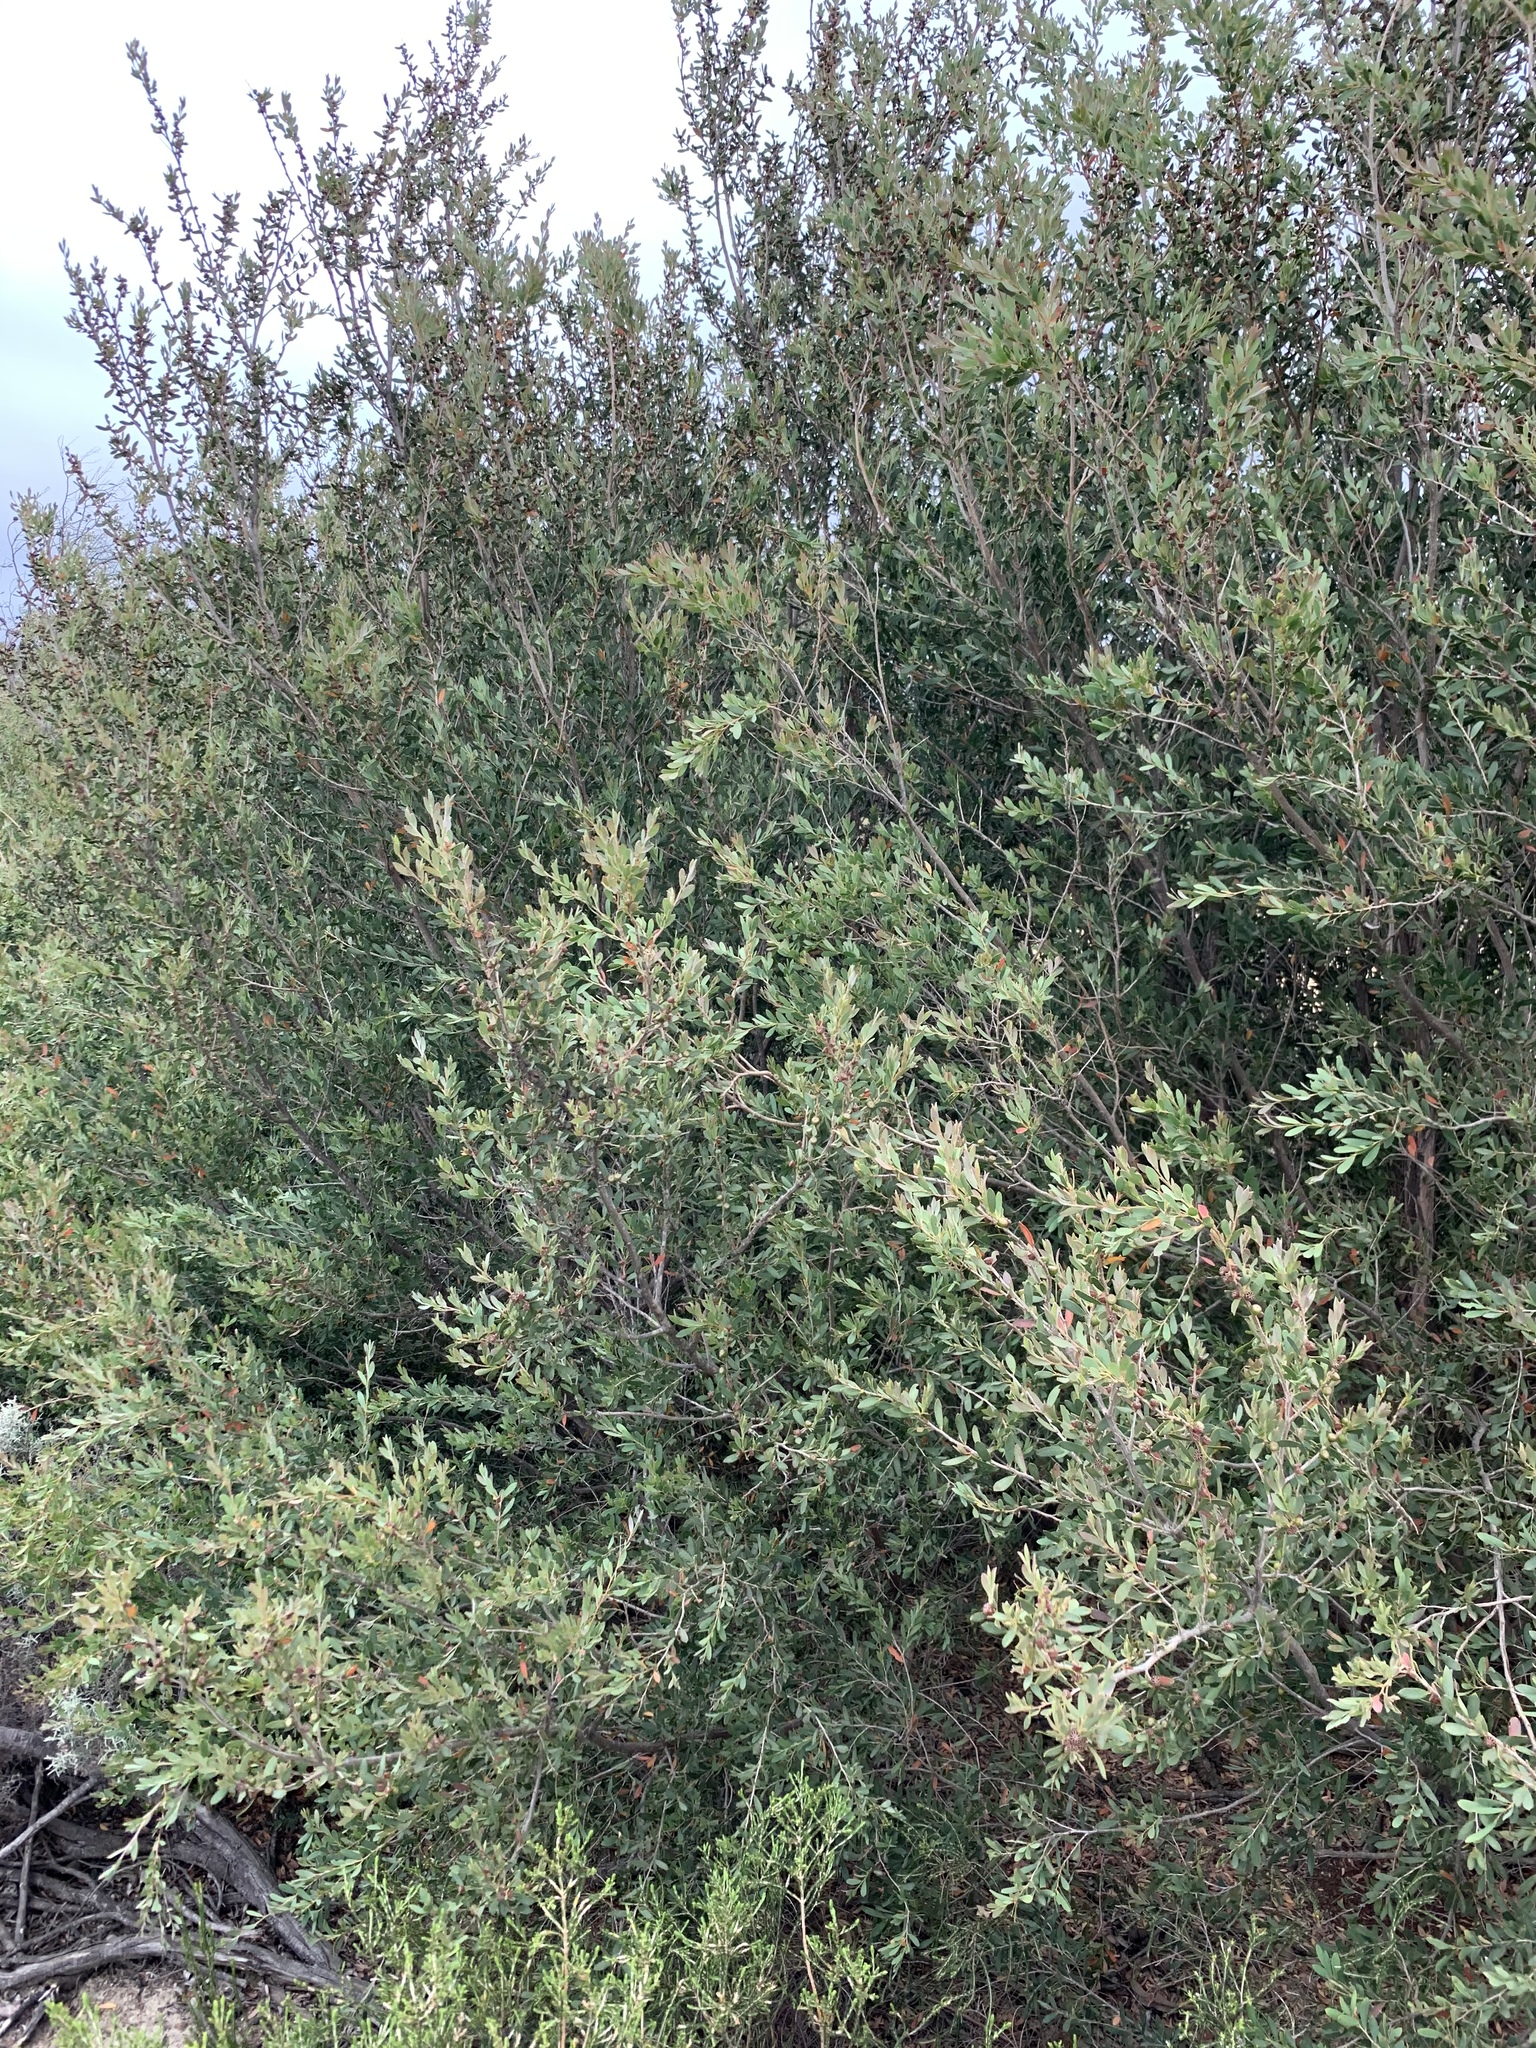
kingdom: Plantae
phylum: Tracheophyta
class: Magnoliopsida
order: Myrtales
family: Myrtaceae
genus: Leptospermum
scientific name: Leptospermum laevigatum
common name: Australian teatree
